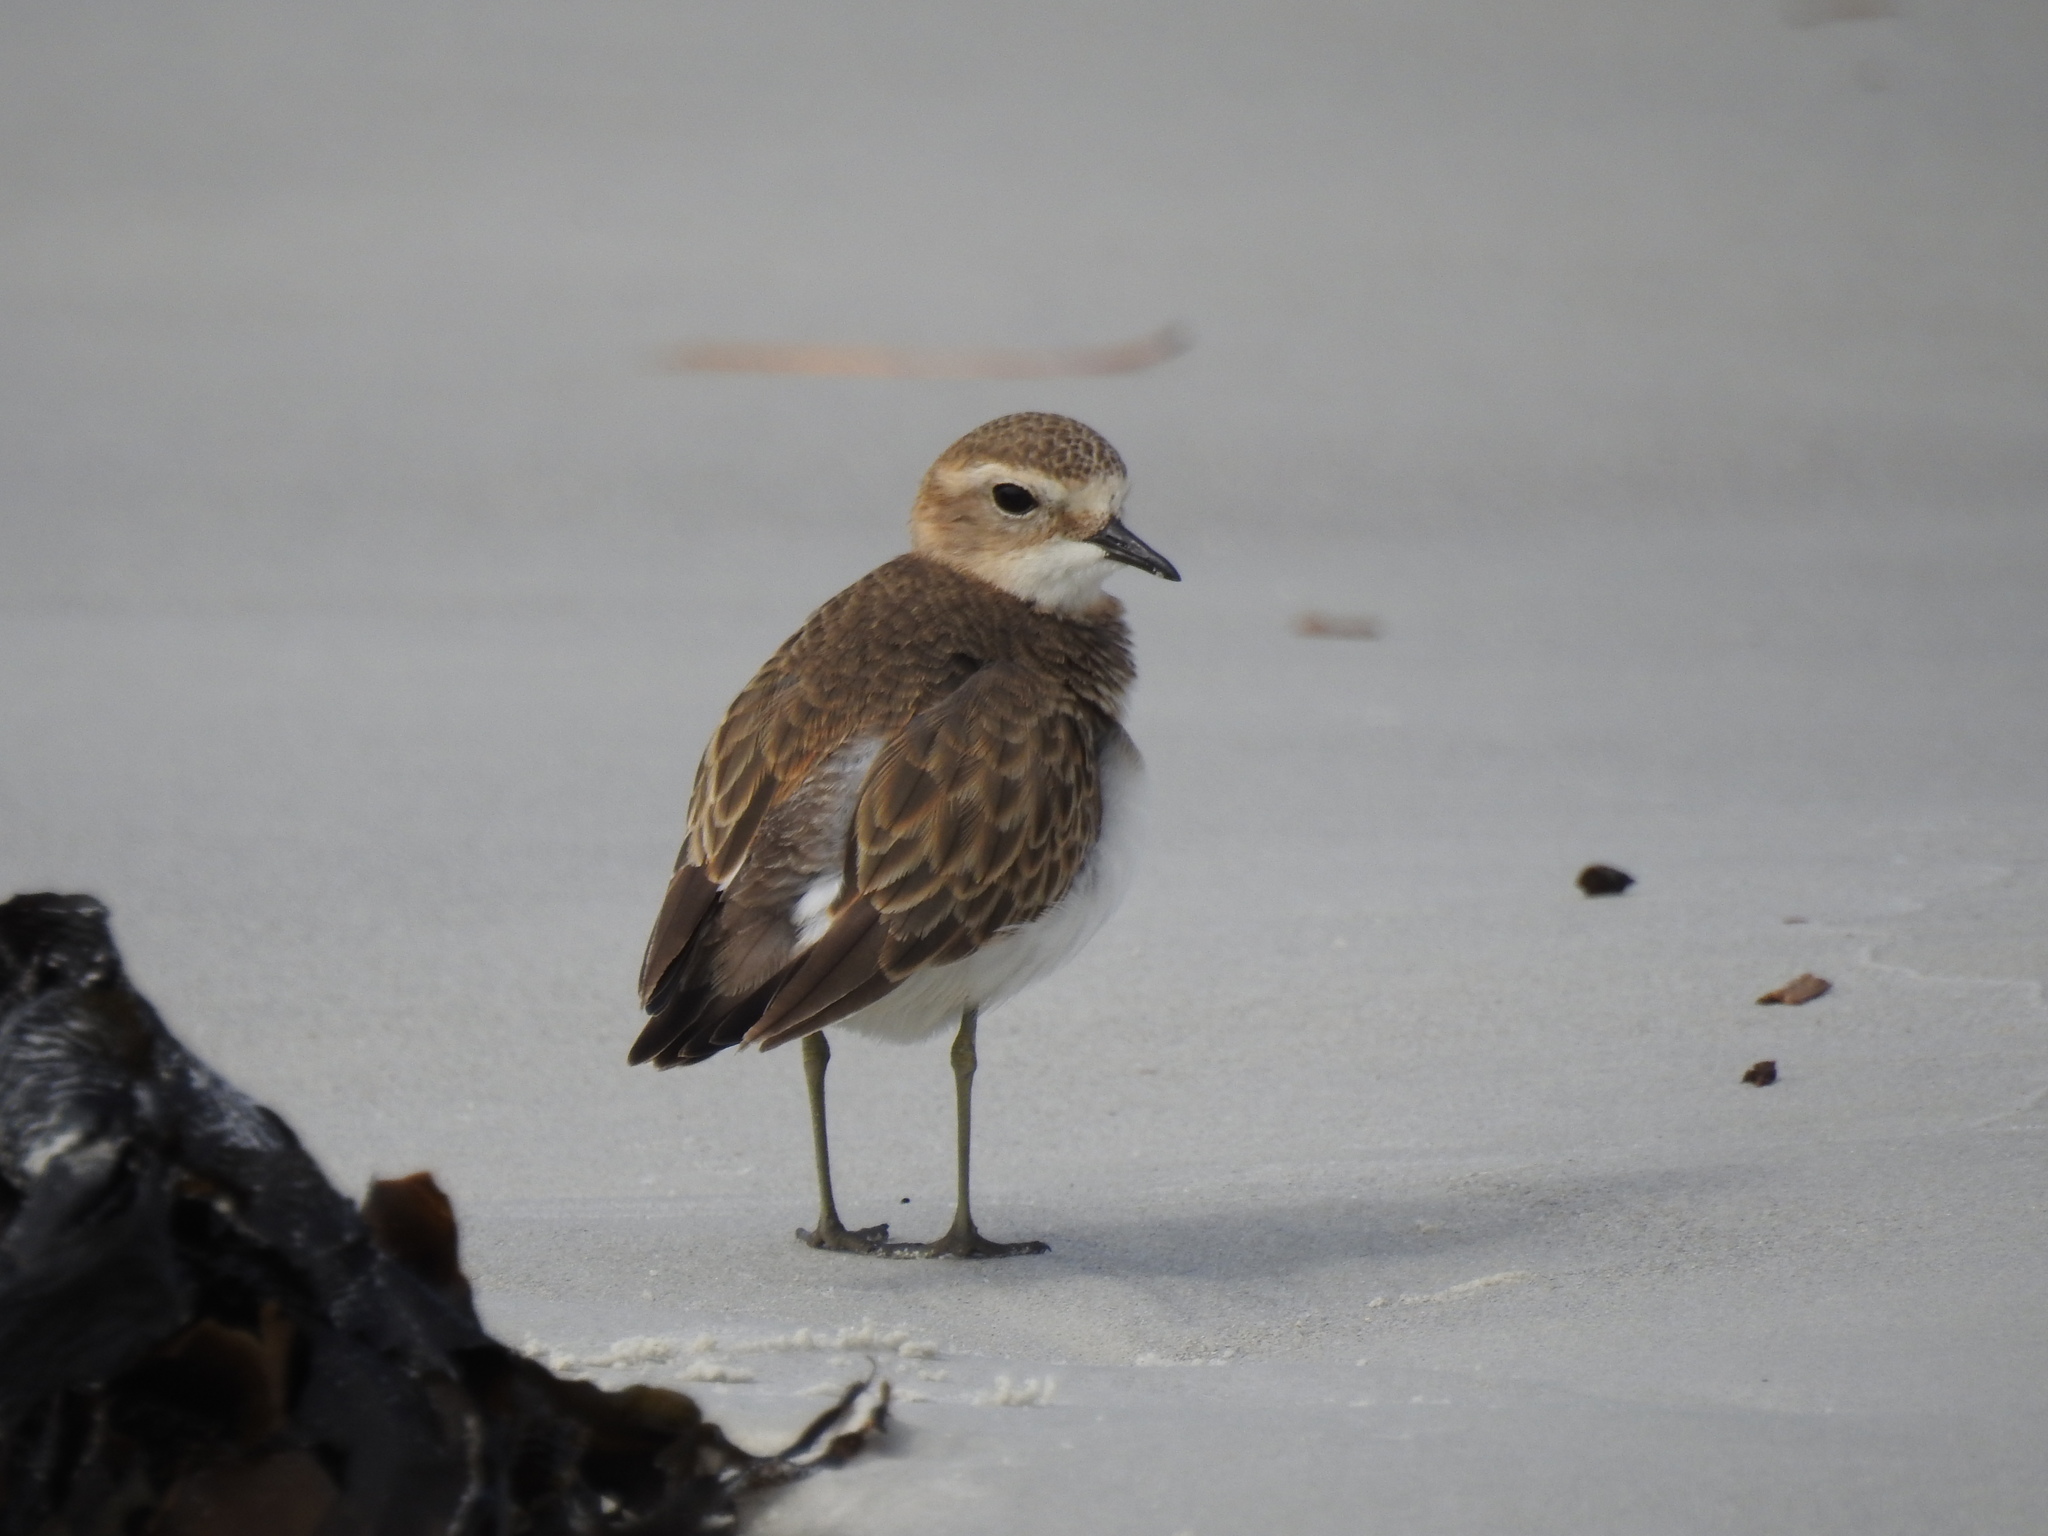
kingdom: Animalia
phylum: Chordata
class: Aves
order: Charadriiformes
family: Charadriidae
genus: Anarhynchus
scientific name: Anarhynchus
